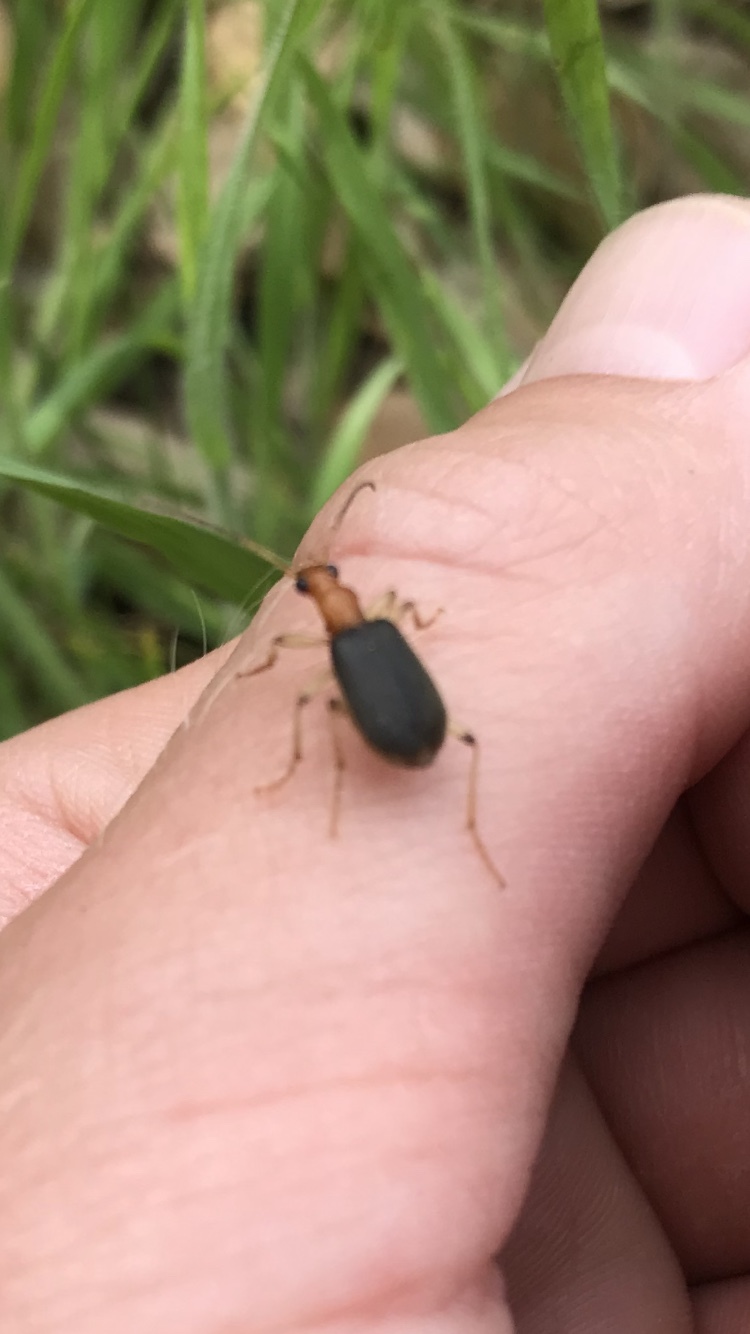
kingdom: Animalia
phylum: Arthropoda
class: Insecta
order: Coleoptera
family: Carabidae
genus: Brachinus
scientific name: Brachinus adustipennis
